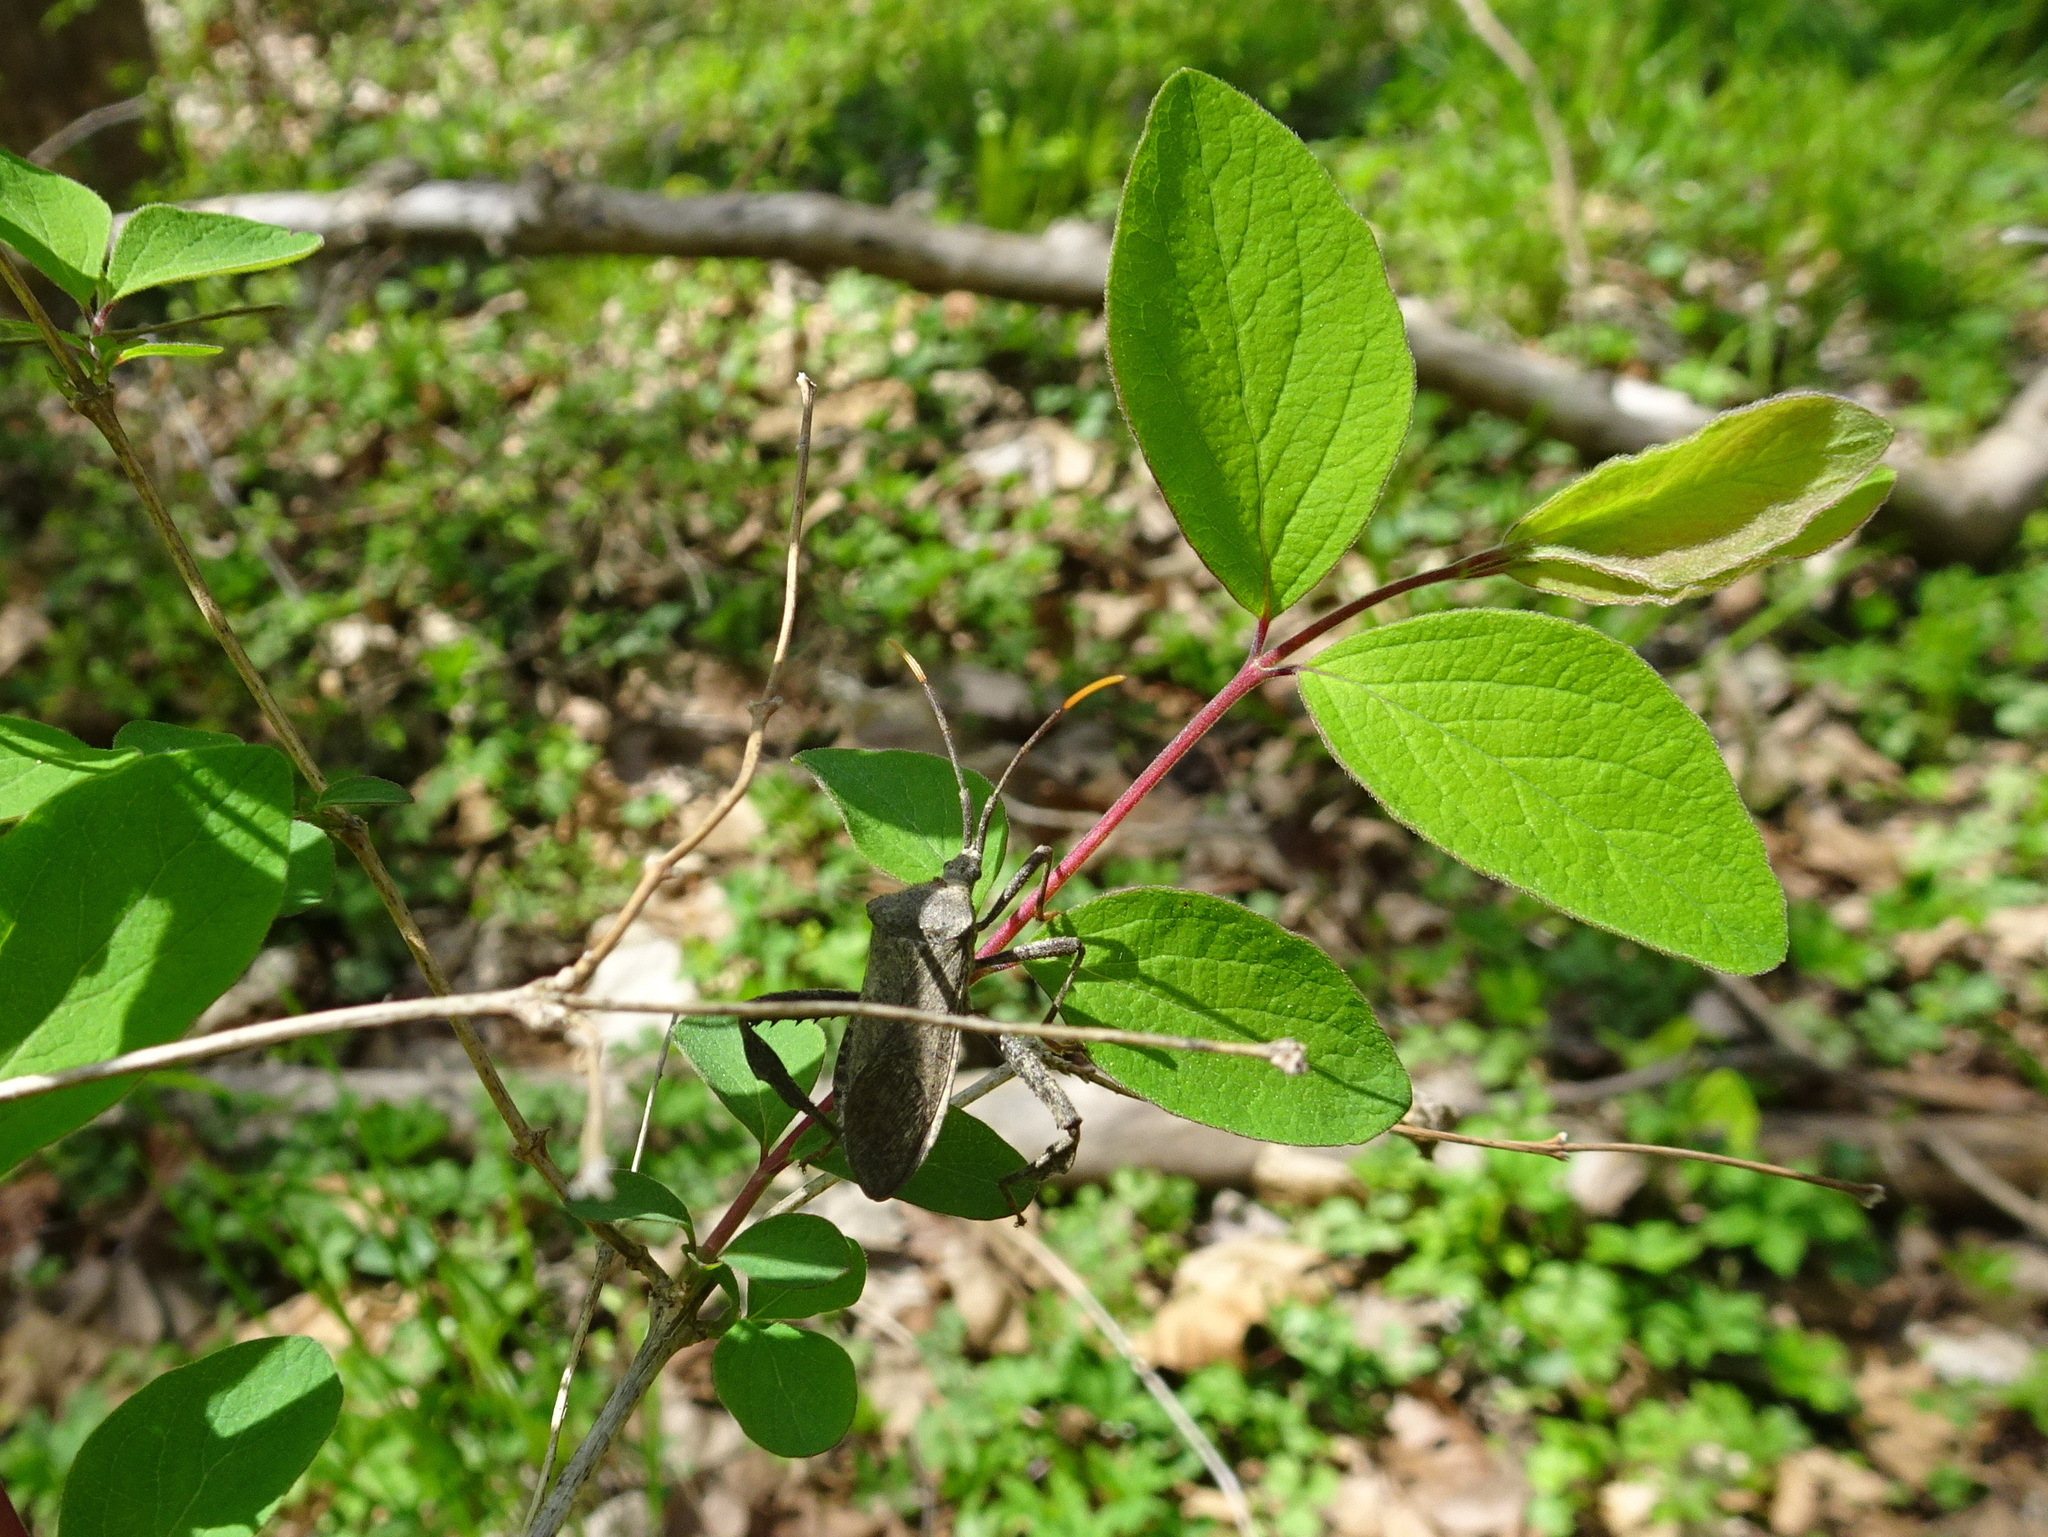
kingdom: Animalia
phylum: Arthropoda
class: Insecta
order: Hemiptera
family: Coreidae
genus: Acanthocephala
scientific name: Acanthocephala terminalis
